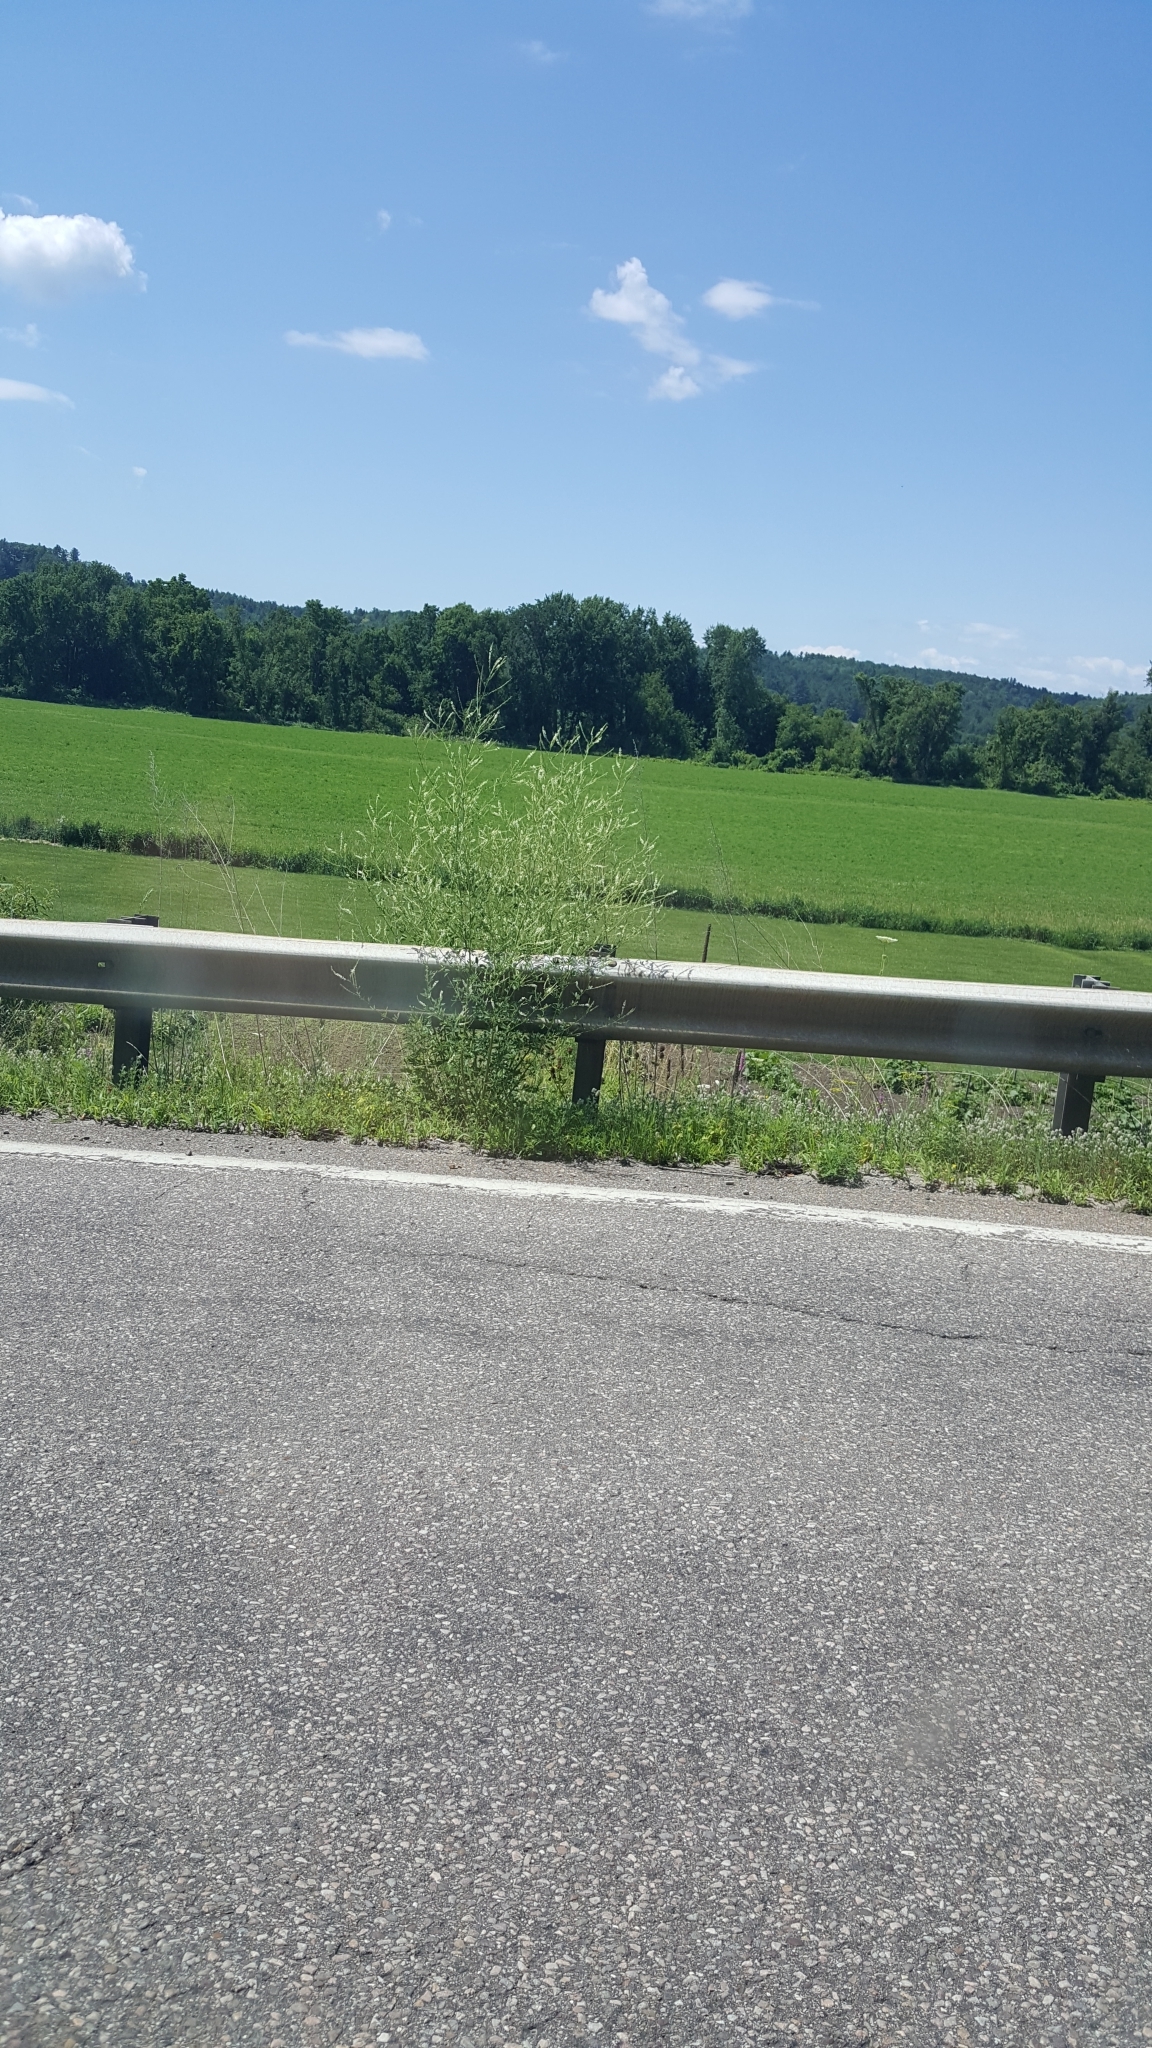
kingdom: Plantae
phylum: Tracheophyta
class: Magnoliopsida
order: Fabales
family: Fabaceae
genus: Melilotus
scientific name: Melilotus albus
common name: White melilot
